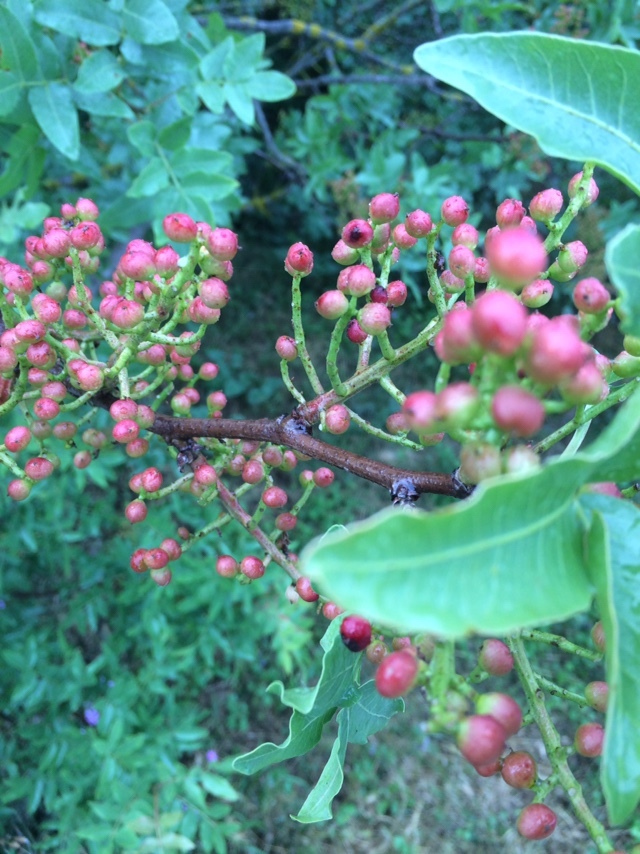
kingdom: Plantae
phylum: Tracheophyta
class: Magnoliopsida
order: Sapindales
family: Anacardiaceae
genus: Pistacia
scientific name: Pistacia atlantica
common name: Mt. atlas mastic tree
